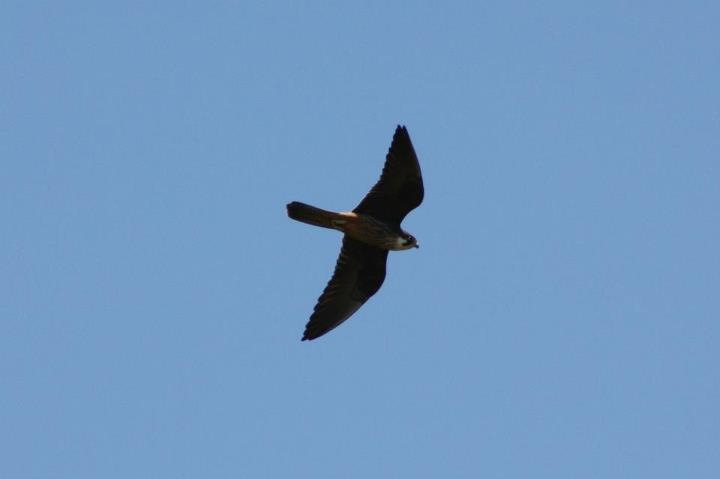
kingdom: Animalia
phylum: Chordata
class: Aves
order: Falconiformes
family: Falconidae
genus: Falco
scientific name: Falco eleonorae
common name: Eleonora's falcon
